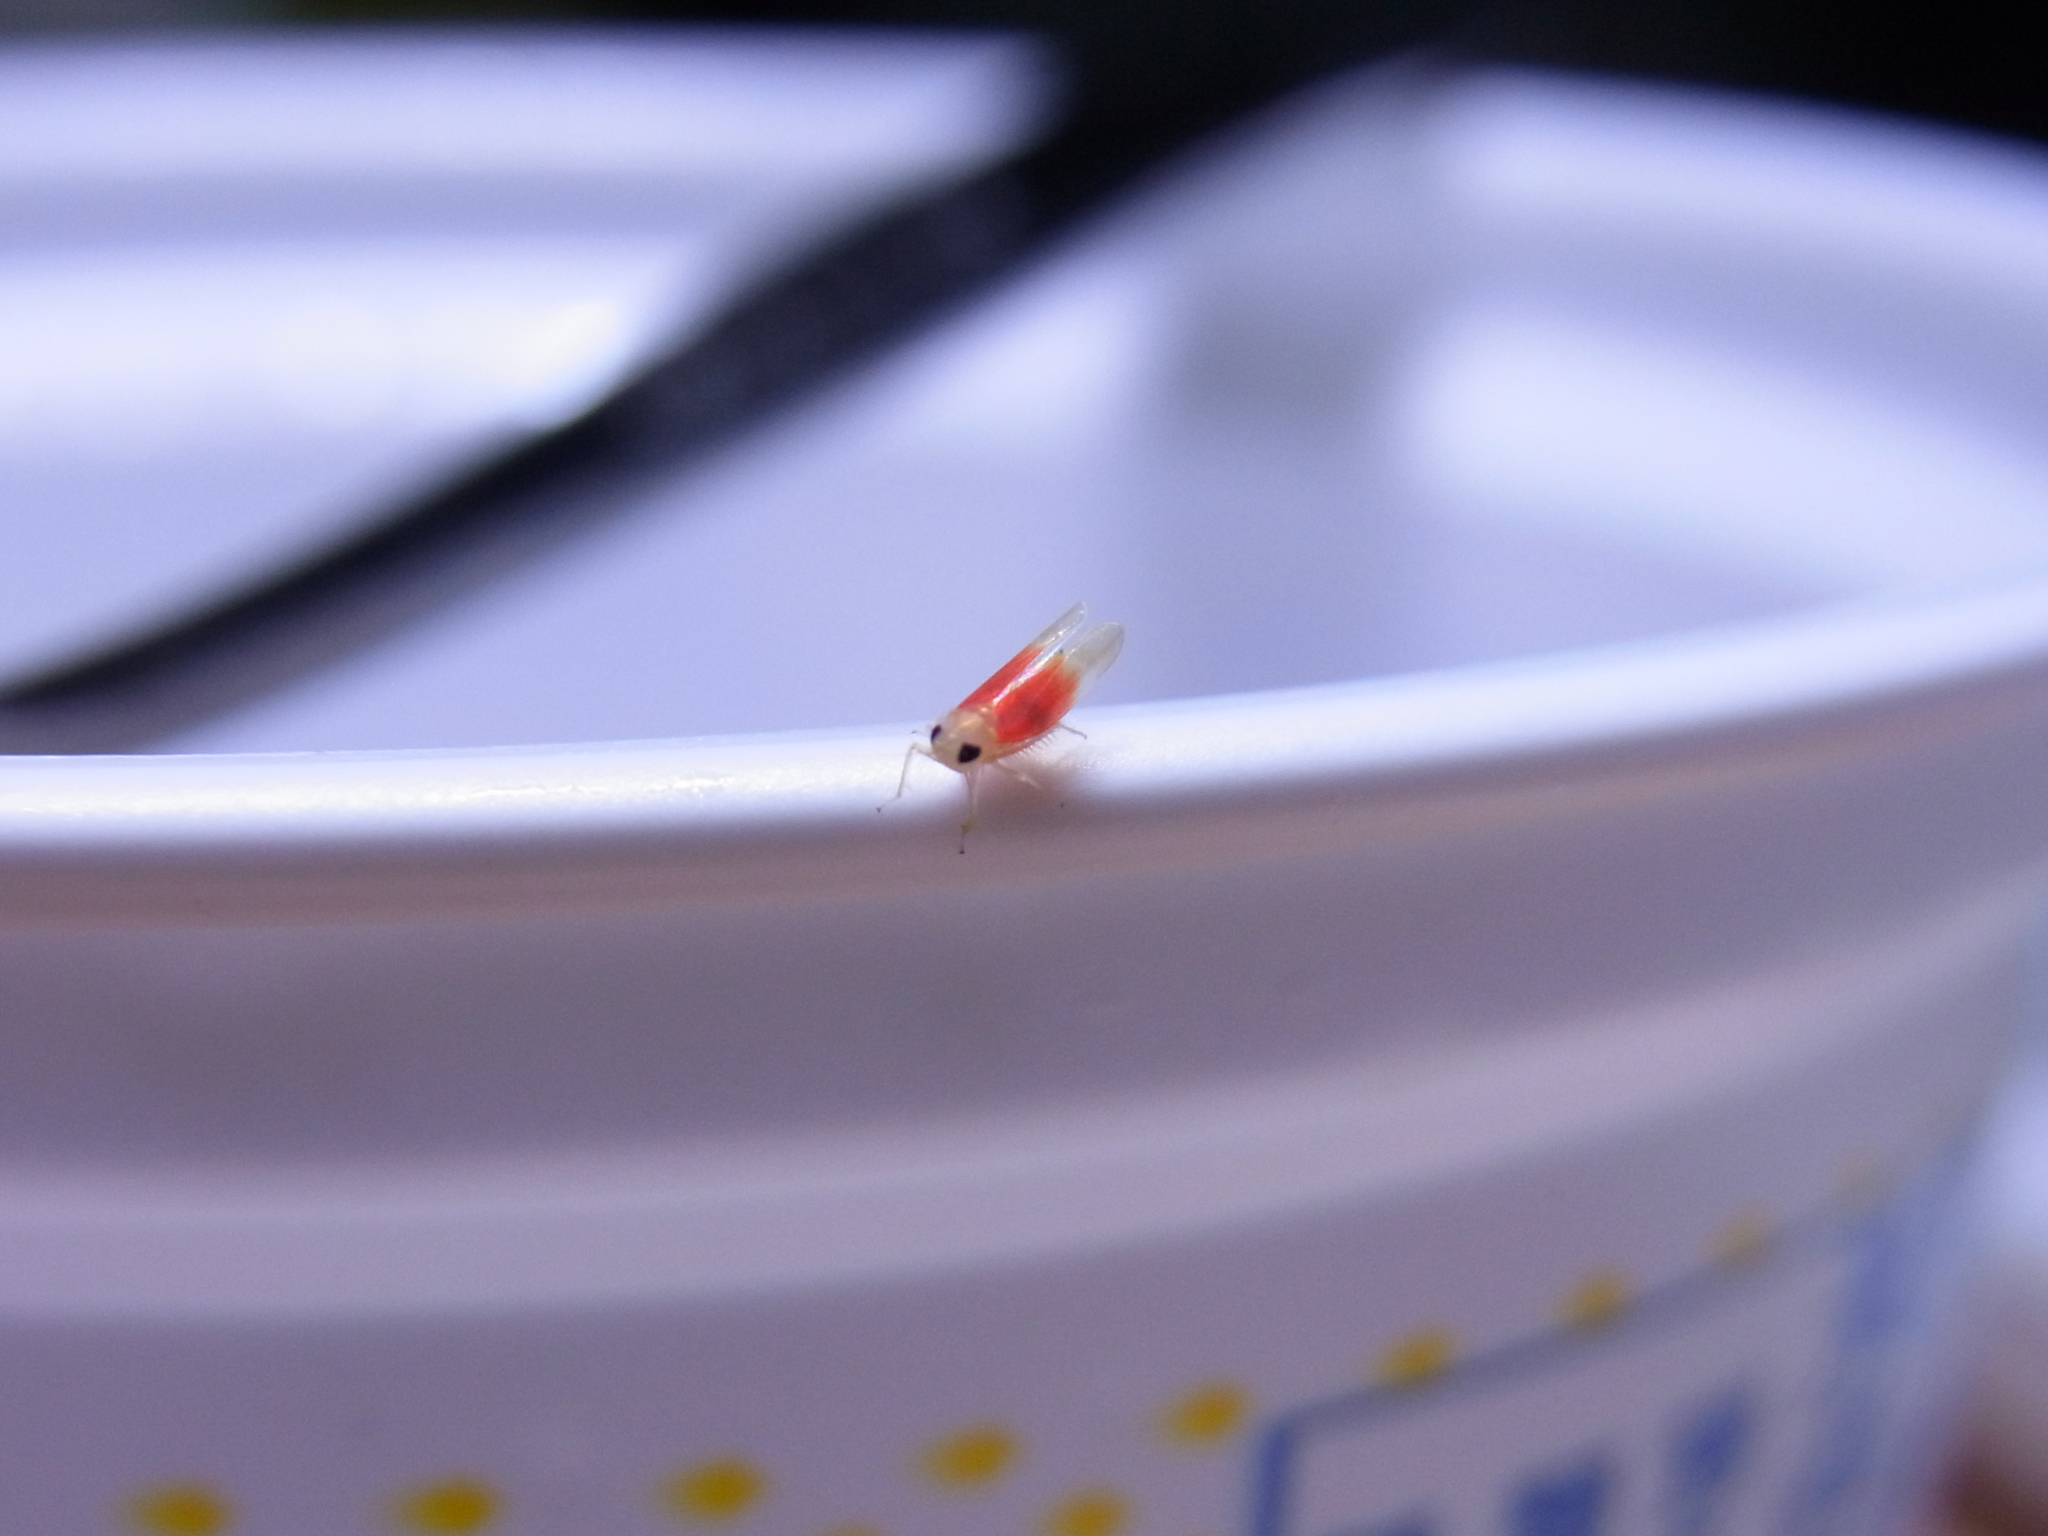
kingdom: Animalia
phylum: Arthropoda
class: Insecta
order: Hemiptera
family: Cicadellidae
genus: Alebrasca
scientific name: Alebrasca actinidiae
